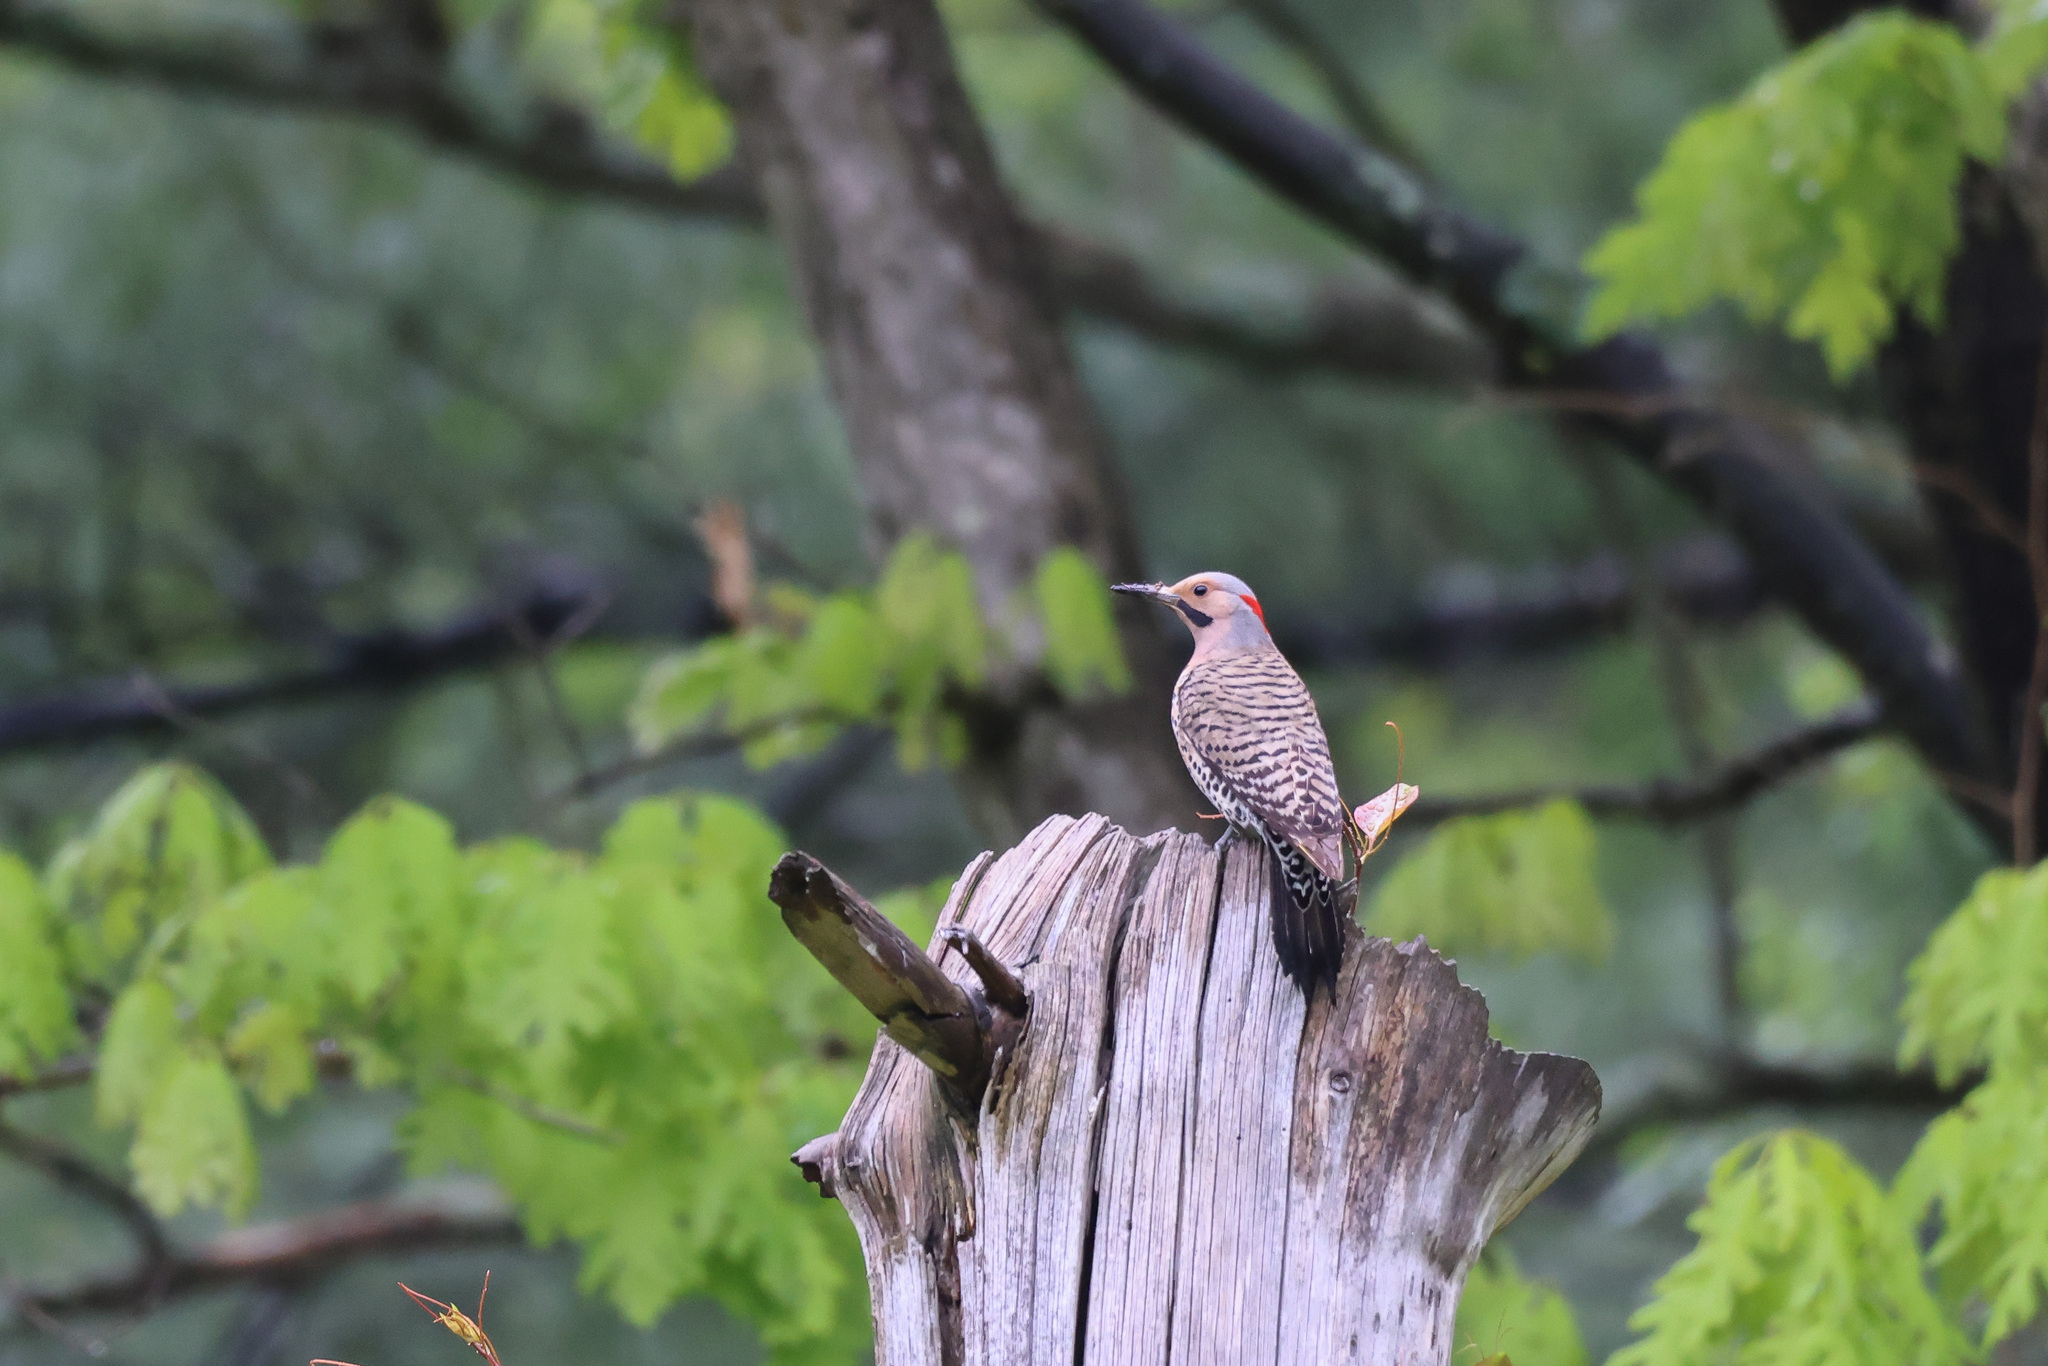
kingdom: Animalia
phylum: Chordata
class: Aves
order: Piciformes
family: Picidae
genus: Colaptes
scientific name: Colaptes auratus
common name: Northern flicker
